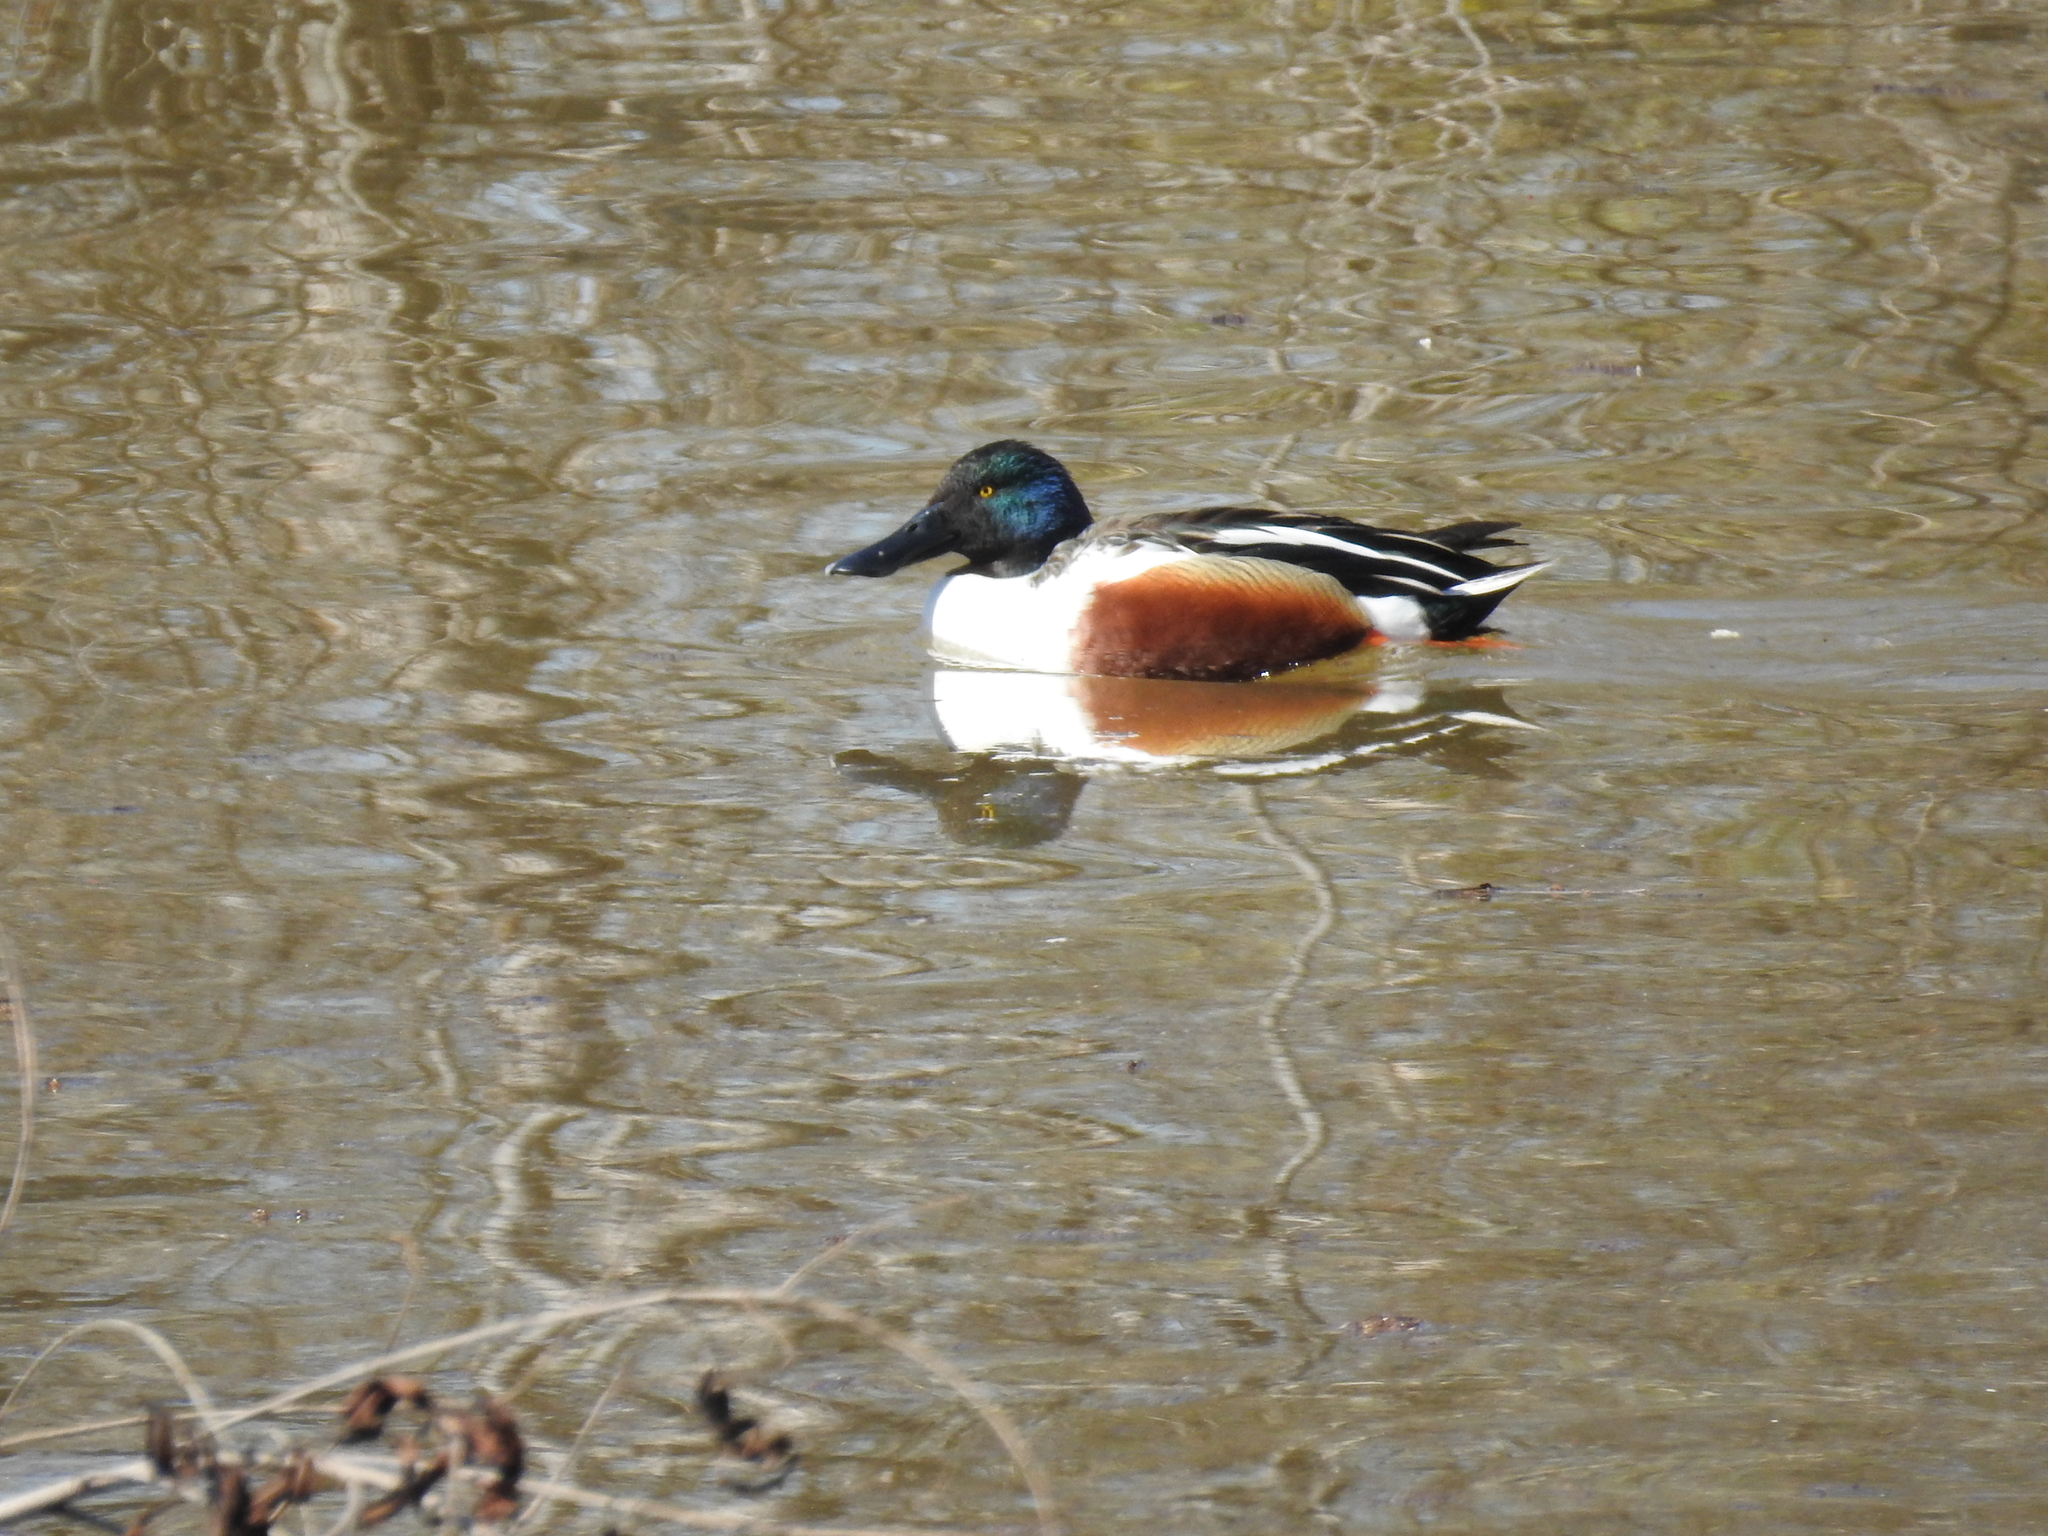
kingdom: Animalia
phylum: Chordata
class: Aves
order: Anseriformes
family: Anatidae
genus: Spatula
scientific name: Spatula clypeata
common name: Northern shoveler
